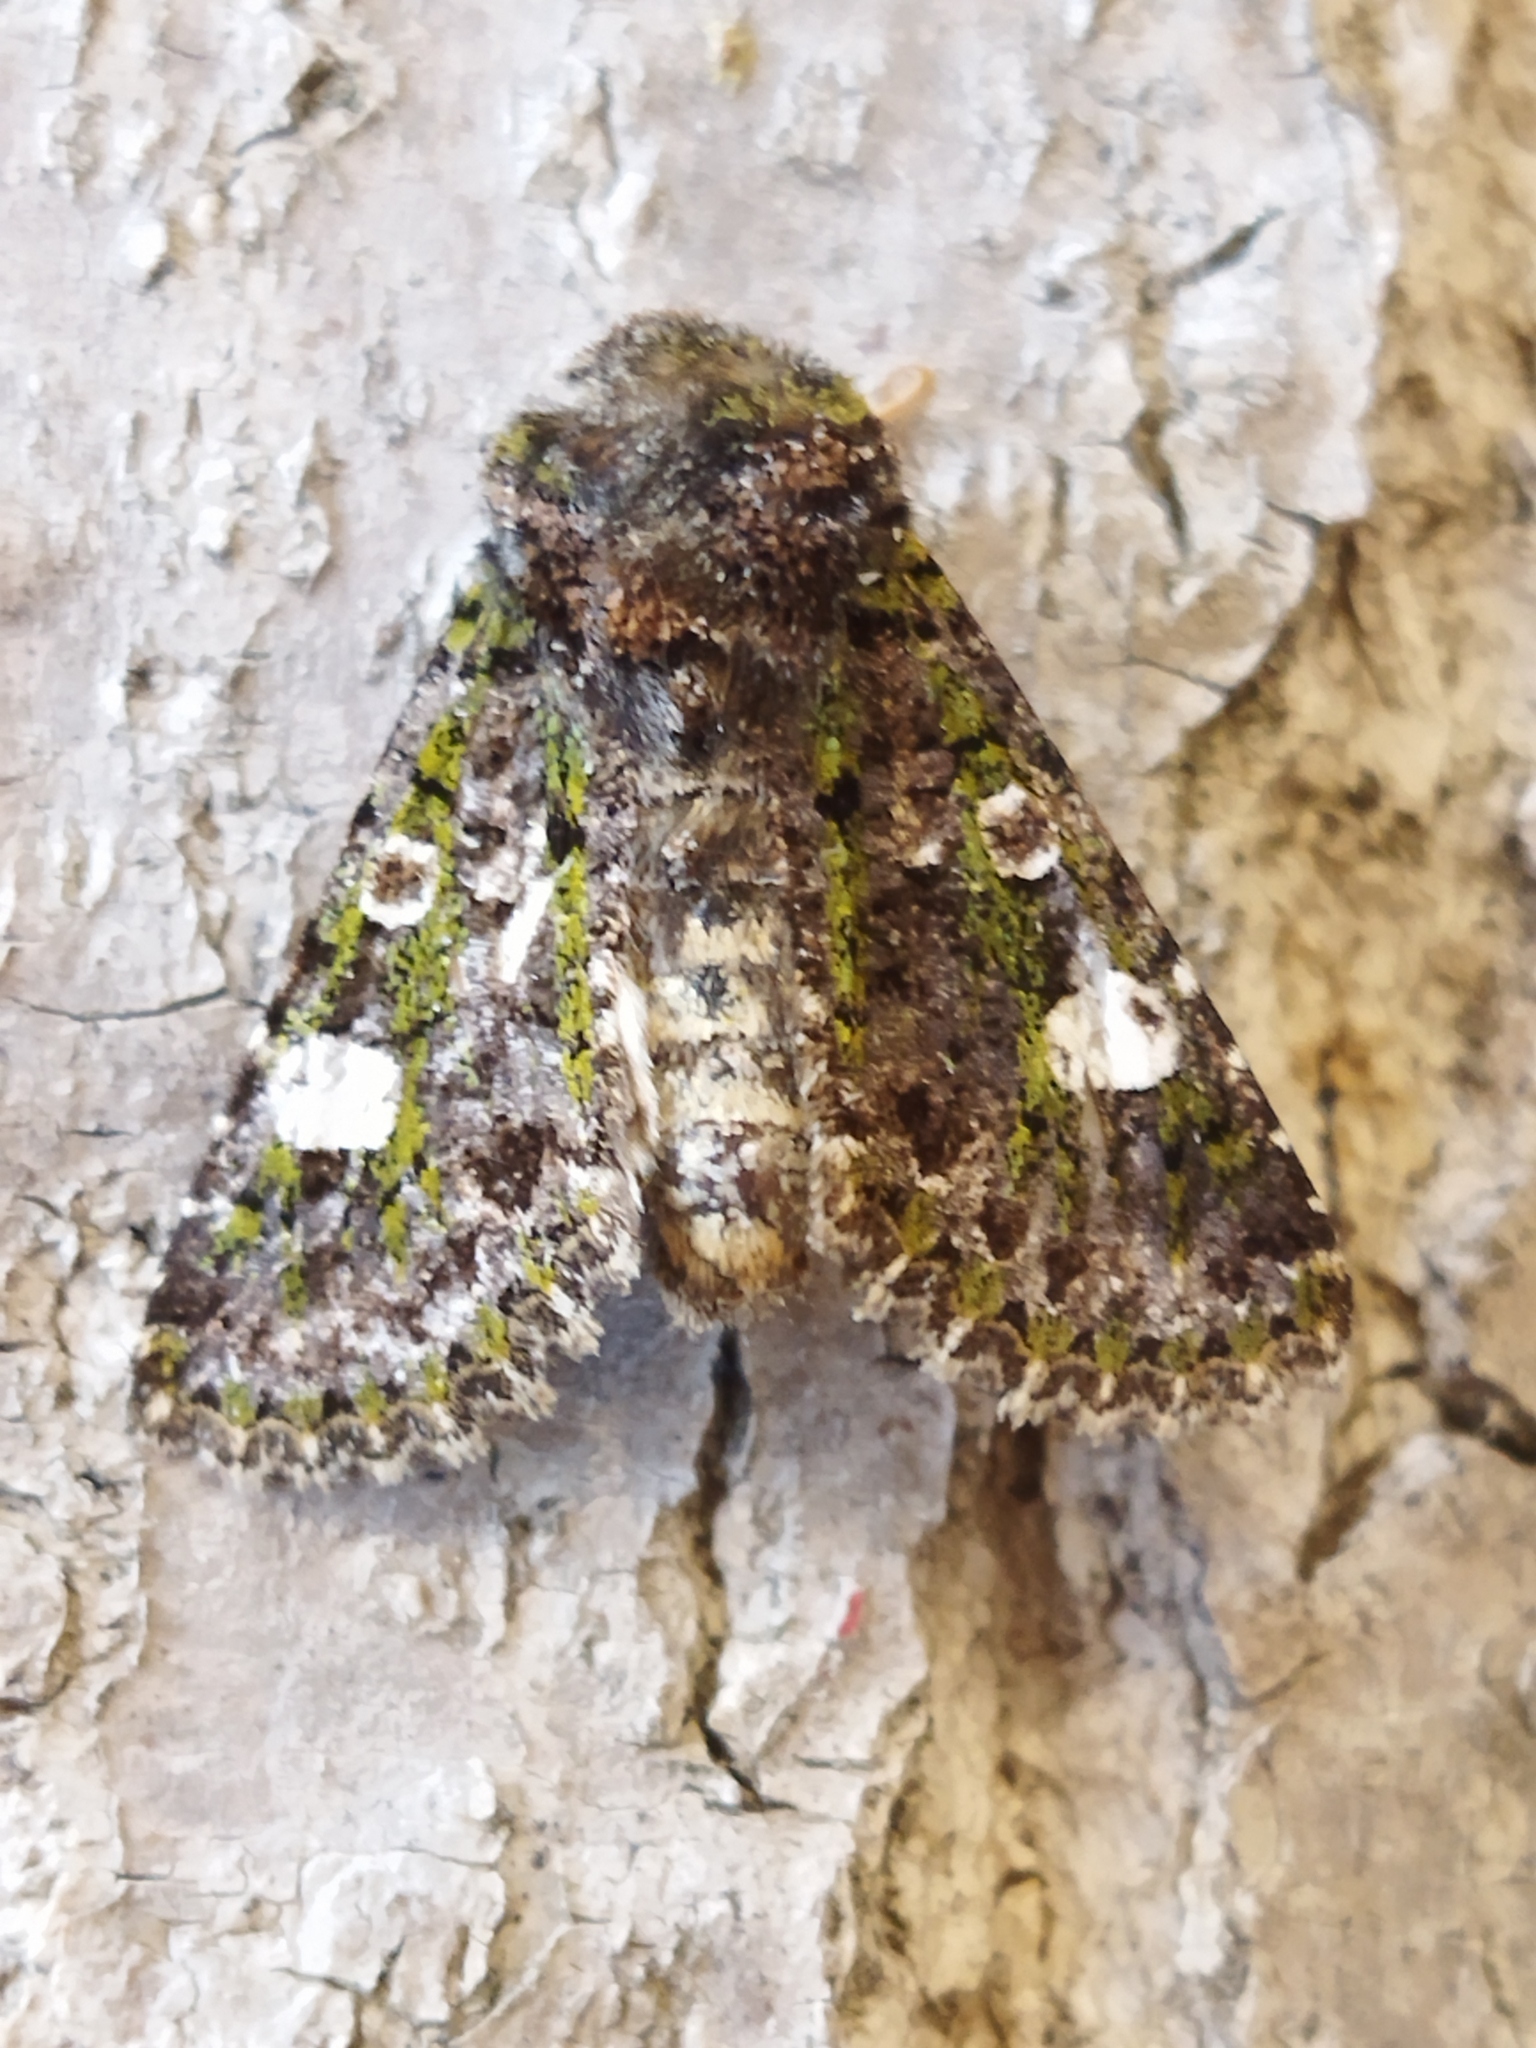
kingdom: Animalia
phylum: Arthropoda
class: Insecta
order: Lepidoptera
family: Noctuidae
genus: Valeria
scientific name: Valeria oleagina
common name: Green-brindled dot
